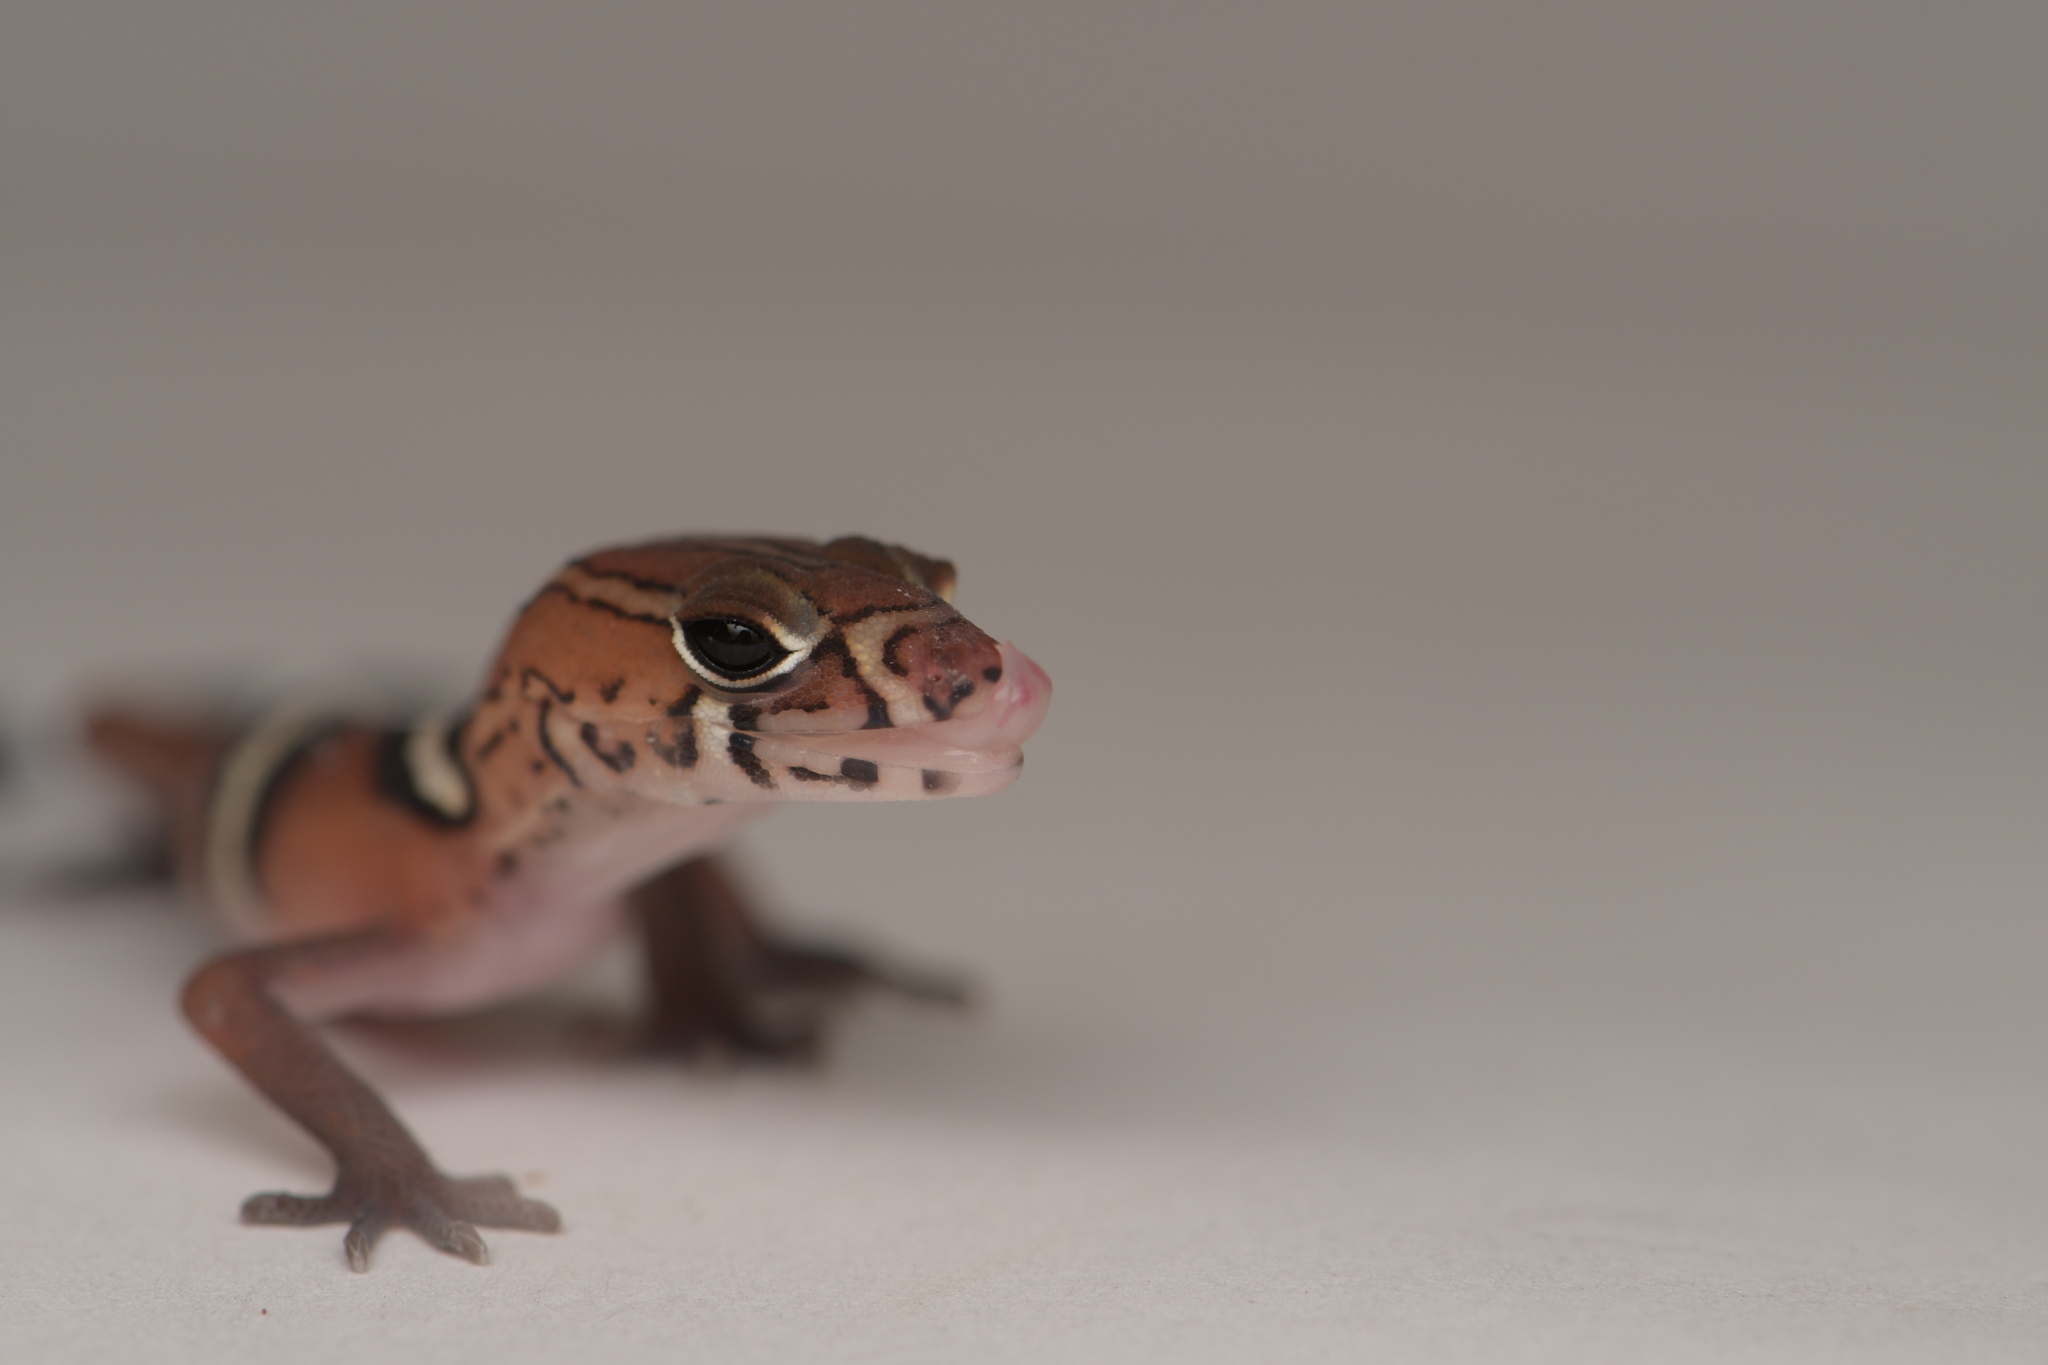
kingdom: Animalia
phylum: Chordata
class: Squamata
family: Eublepharidae
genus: Coleonyx
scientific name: Coleonyx
